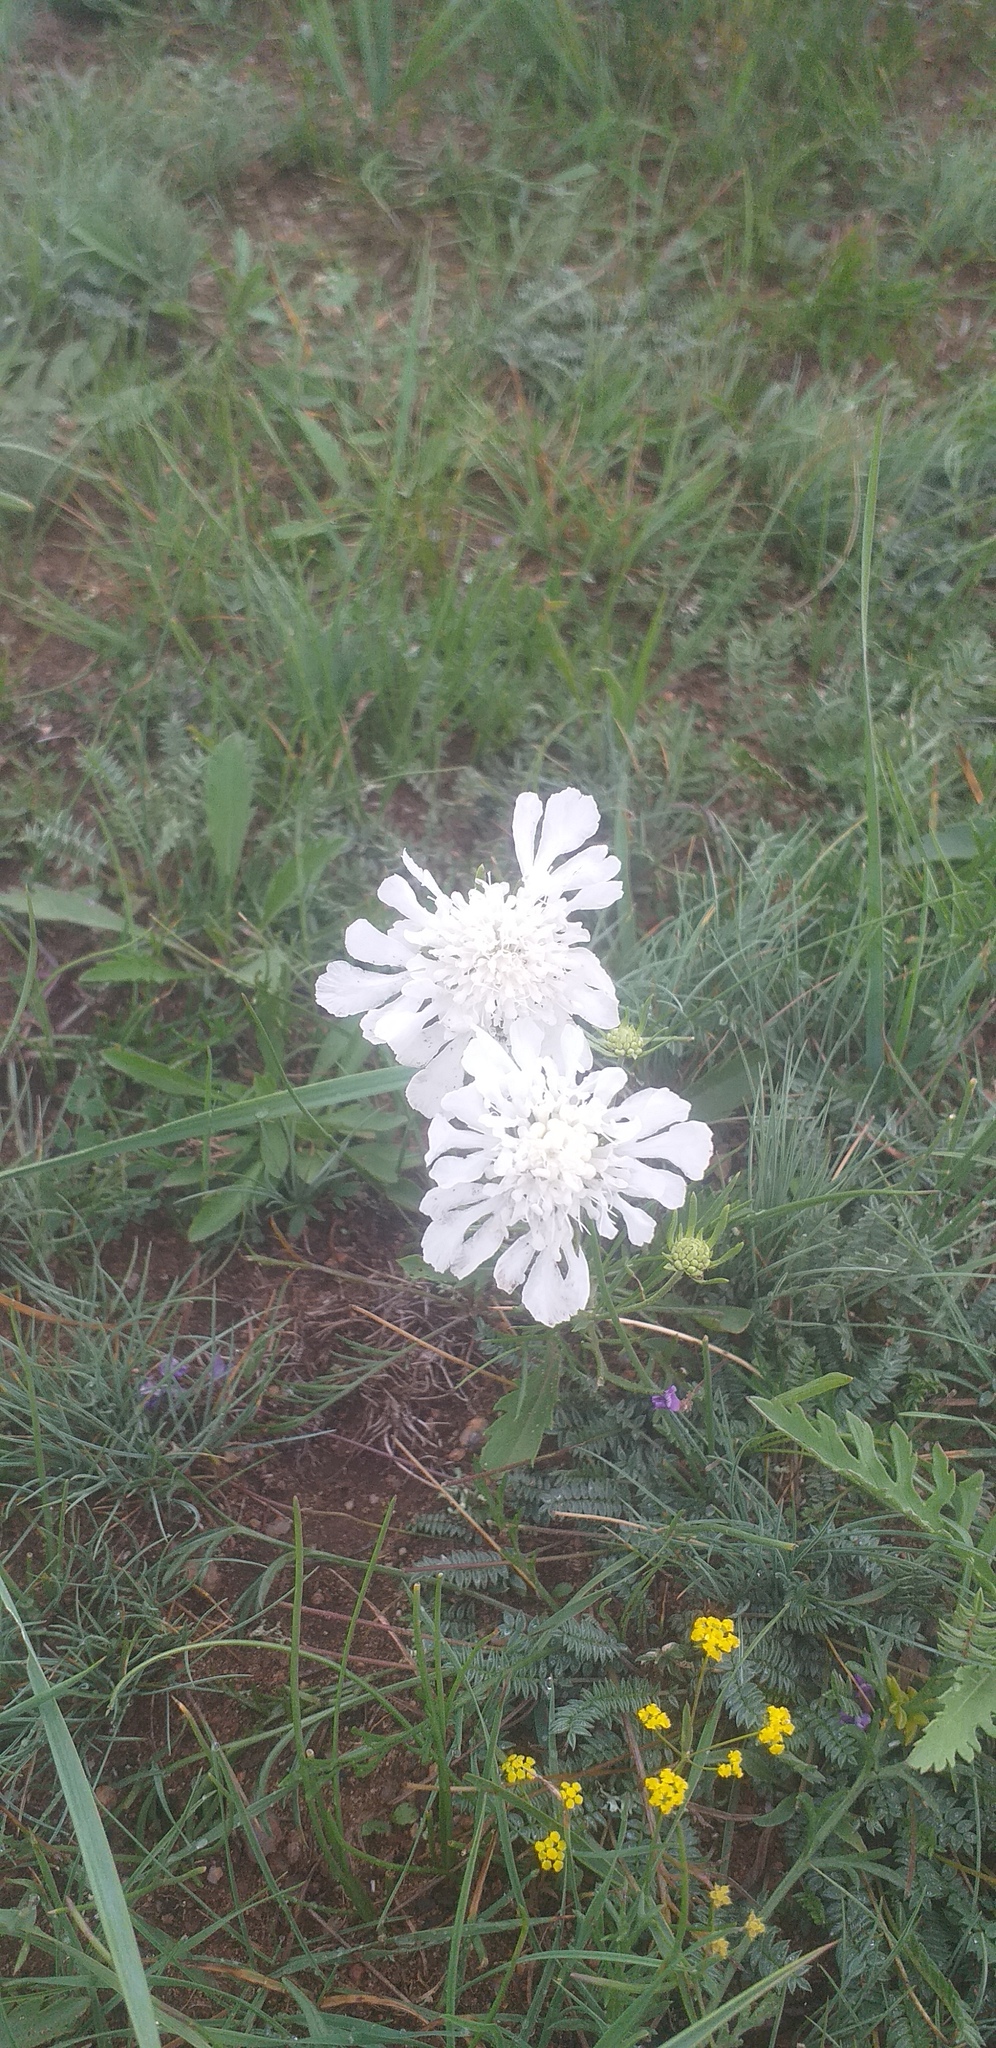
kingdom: Plantae
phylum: Tracheophyta
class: Magnoliopsida
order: Dipsacales
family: Caprifoliaceae
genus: Scabiosa
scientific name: Scabiosa ochroleuca
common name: Cream pincushions
